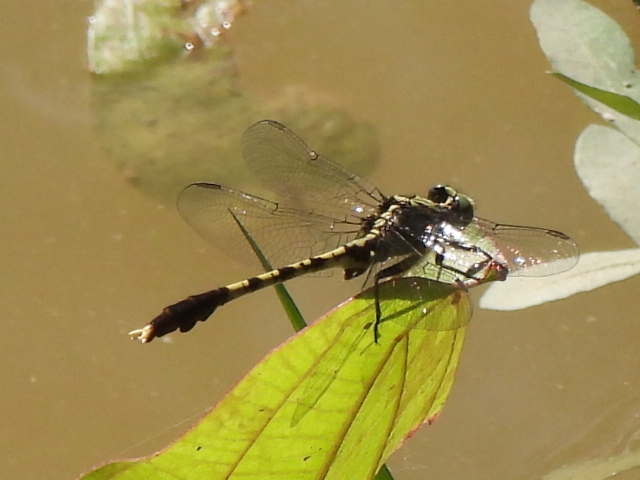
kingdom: Animalia
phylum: Arthropoda
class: Insecta
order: Odonata
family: Gomphidae
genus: Arigomphus
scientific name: Arigomphus maxwelli
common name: Bayou clubtail
